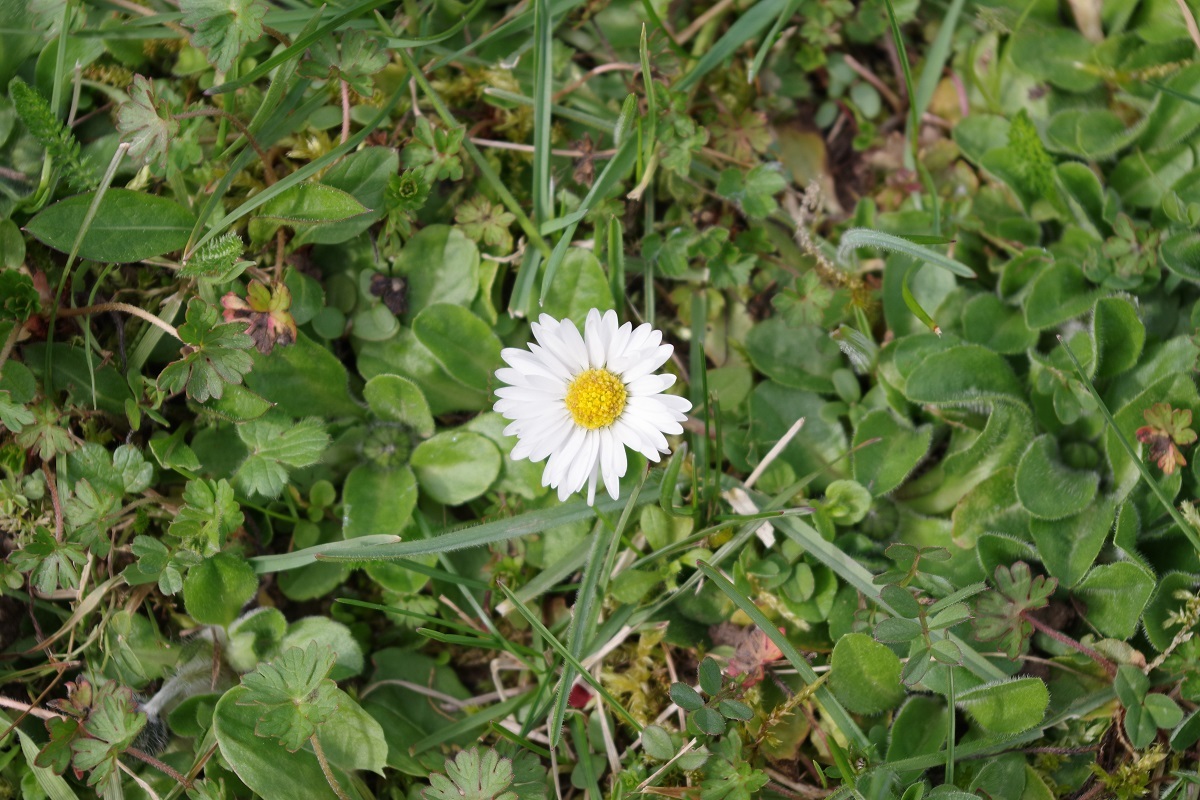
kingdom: Plantae
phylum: Tracheophyta
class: Magnoliopsida
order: Asterales
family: Asteraceae
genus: Bellis
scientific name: Bellis perennis
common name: Lawndaisy
